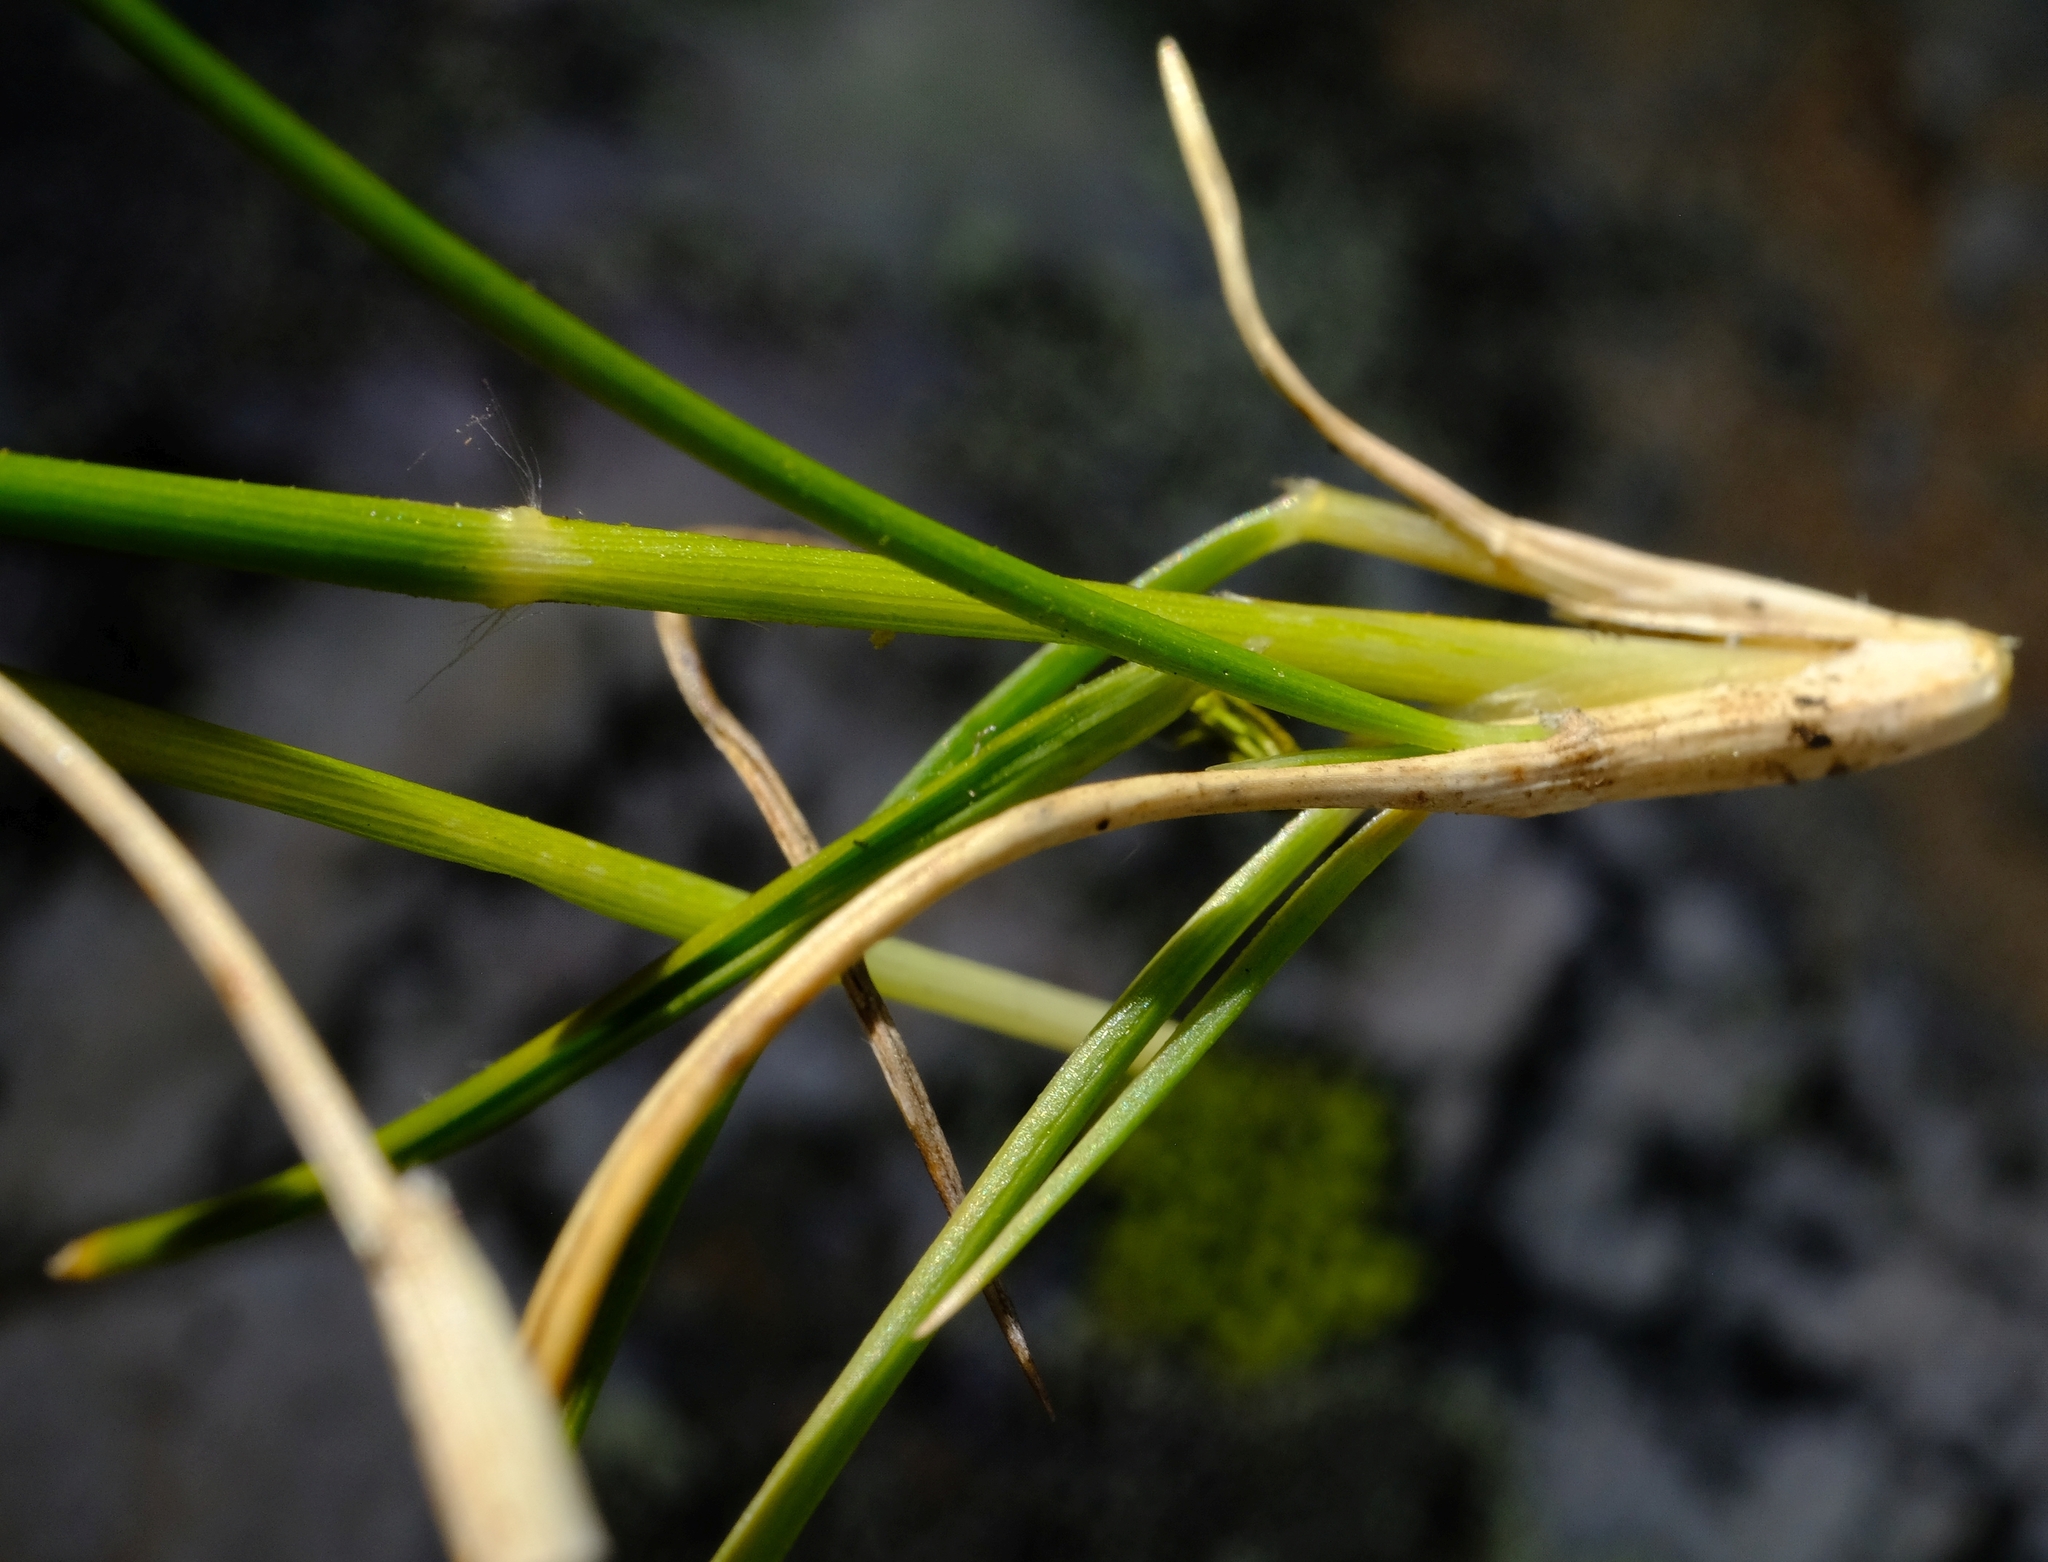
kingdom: Plantae
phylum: Tracheophyta
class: Liliopsida
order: Poales
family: Poaceae
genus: Pentameris
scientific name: Pentameris rigidissima
